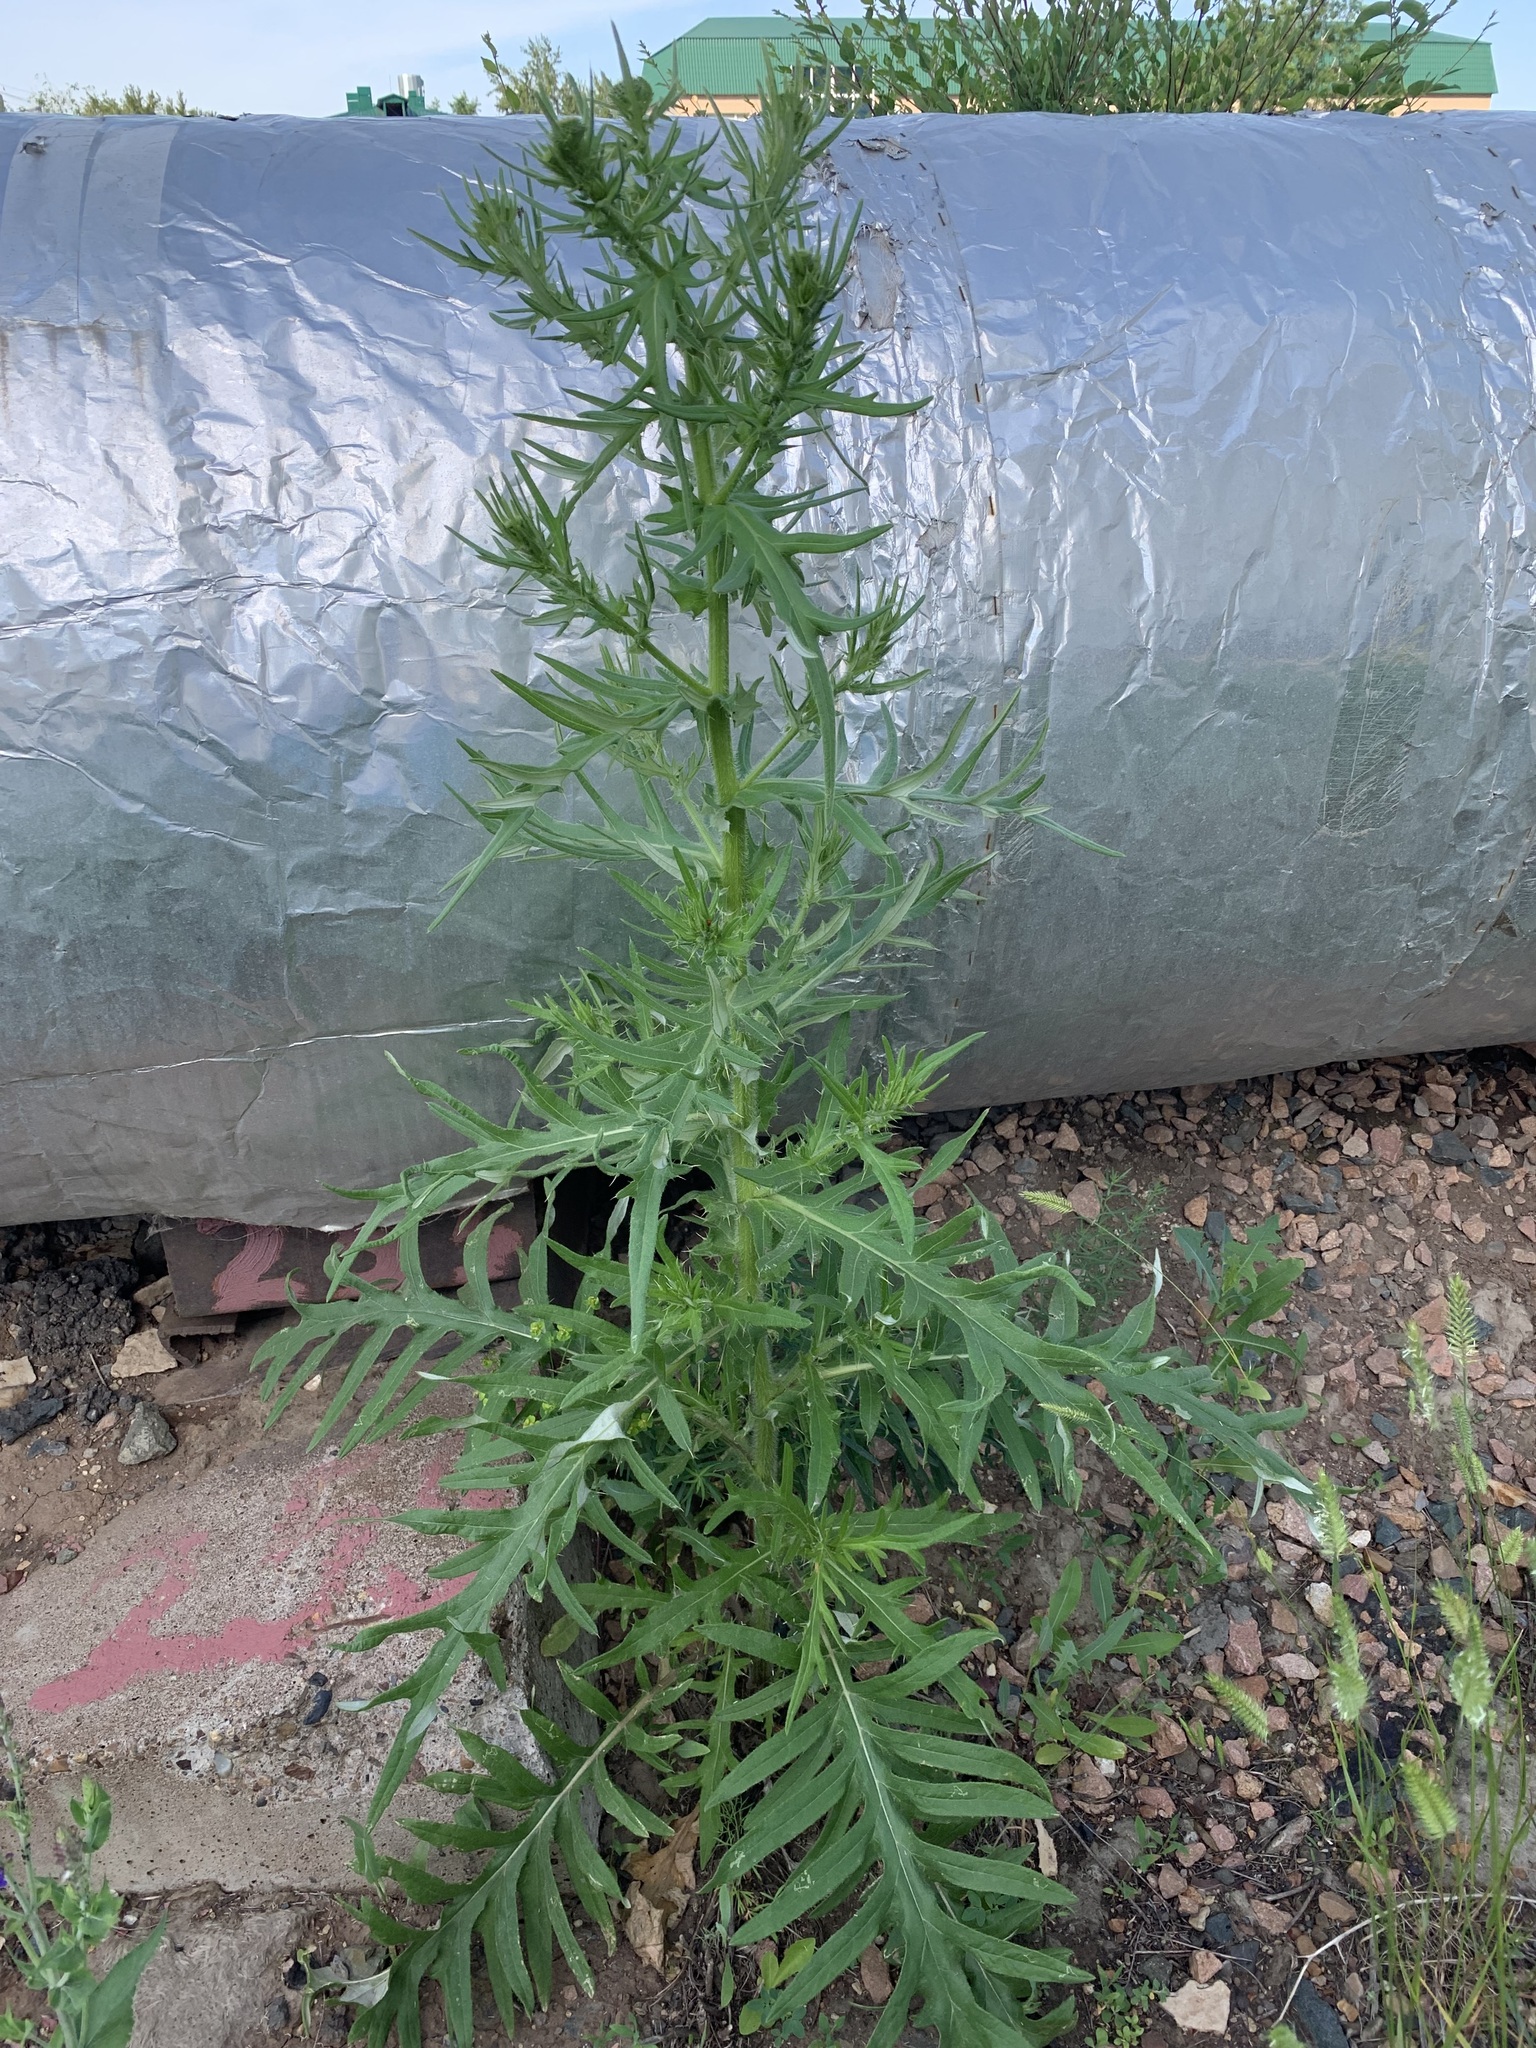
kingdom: Plantae
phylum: Tracheophyta
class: Magnoliopsida
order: Asterales
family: Asteraceae
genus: Cirsium
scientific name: Cirsium serrulatum
